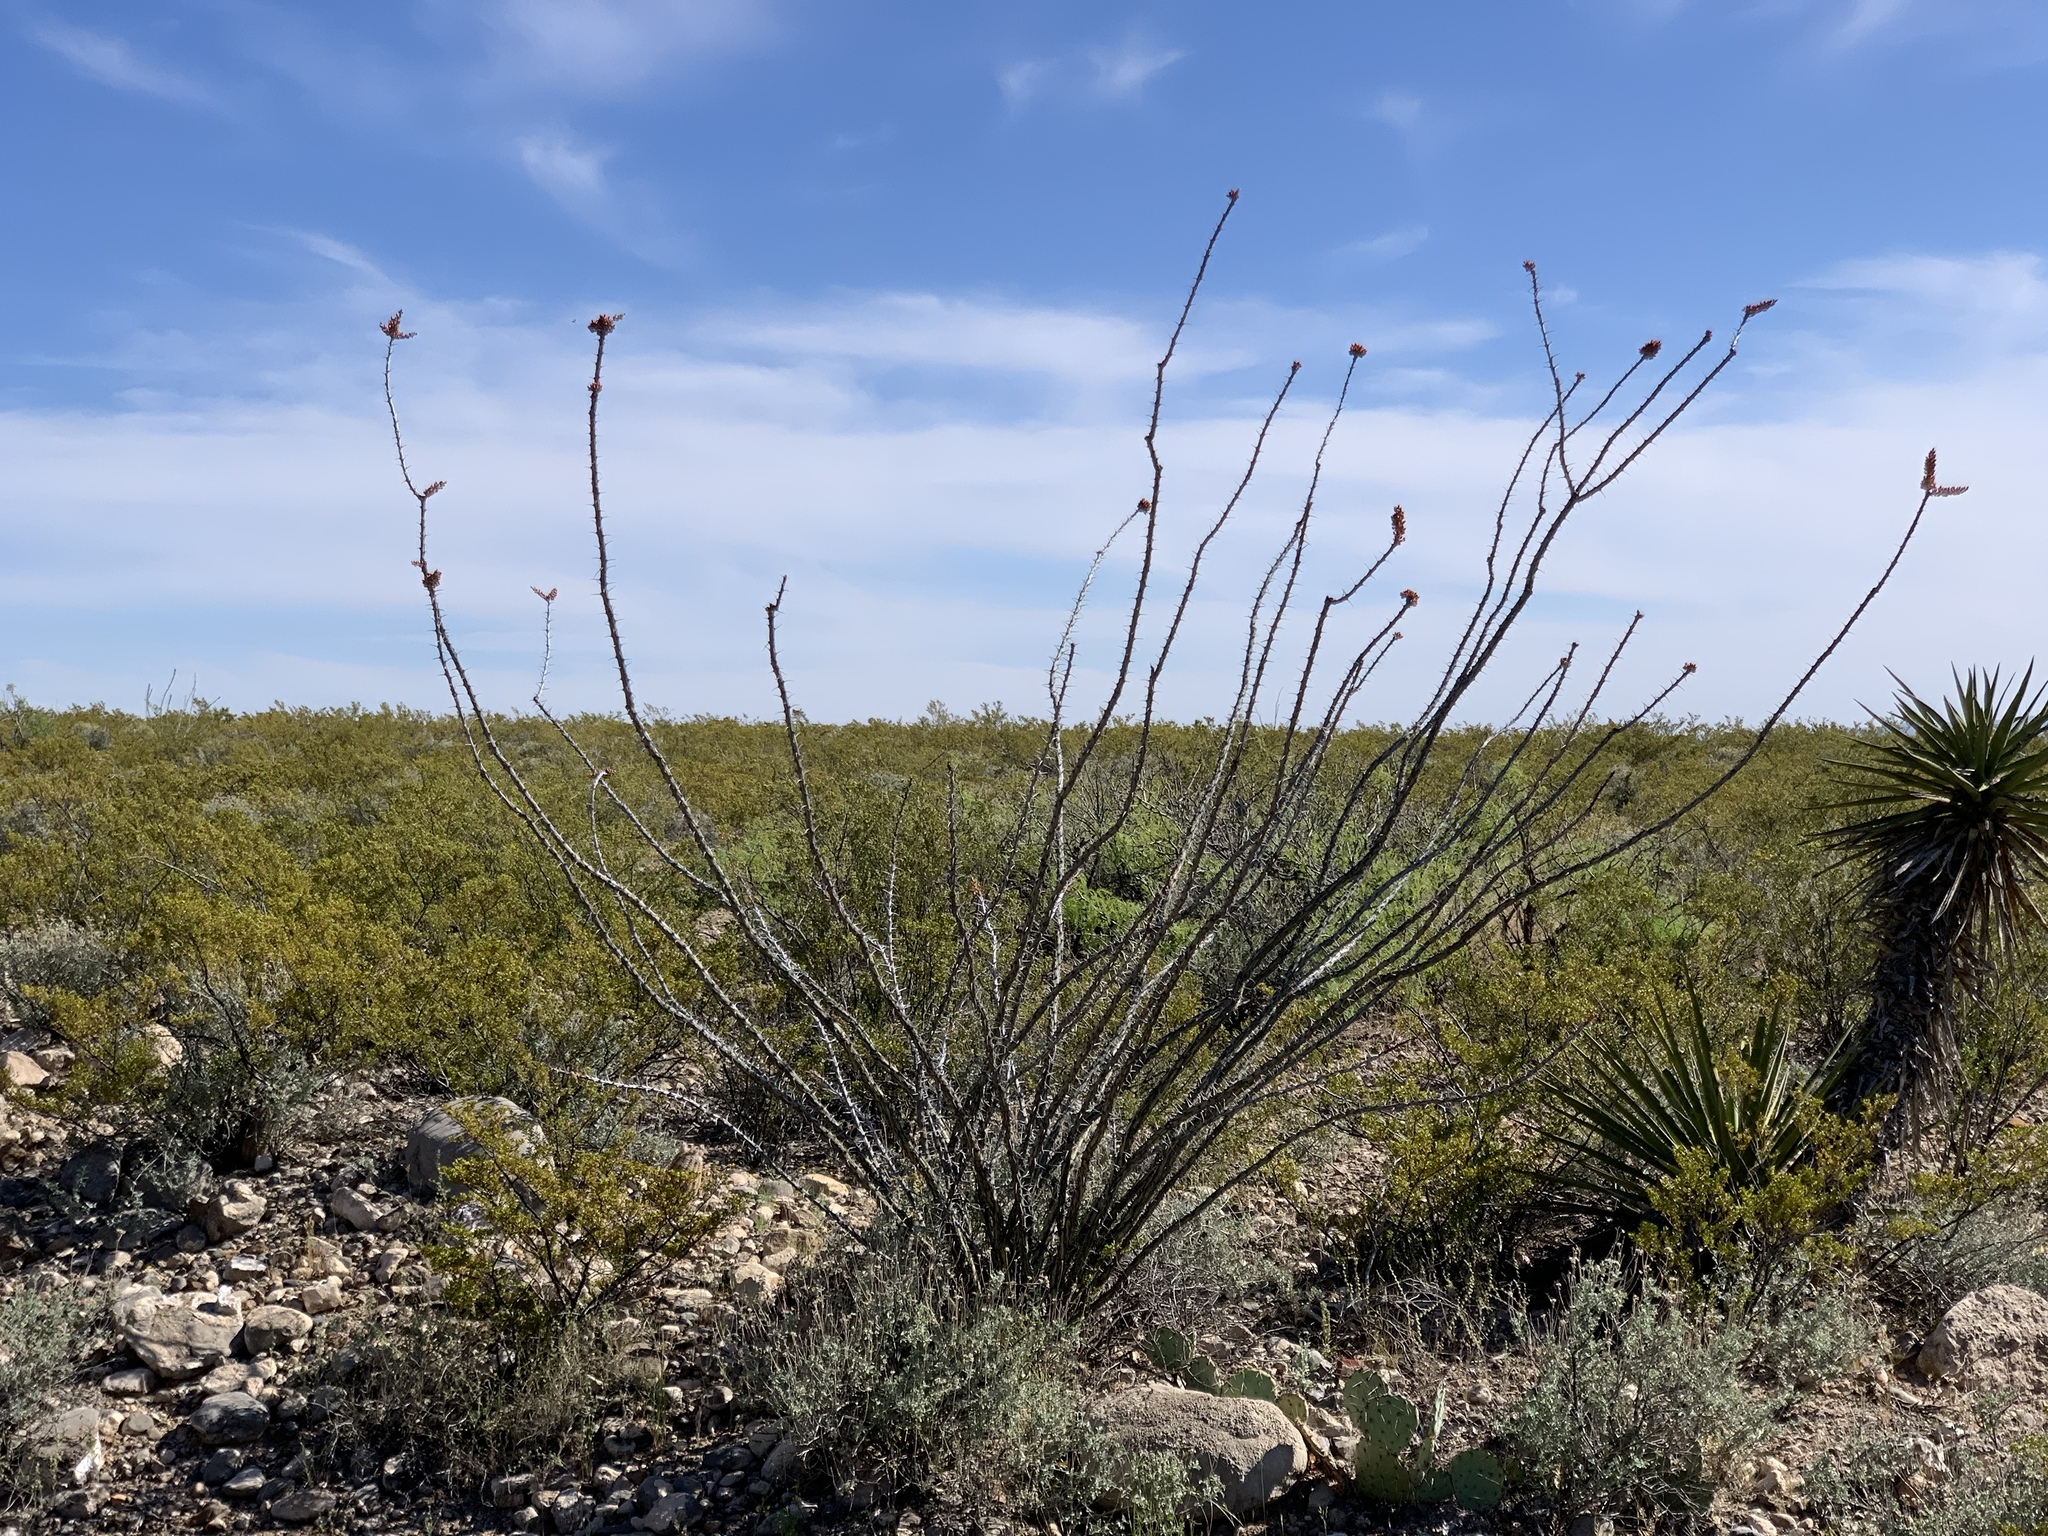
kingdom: Plantae
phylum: Tracheophyta
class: Magnoliopsida
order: Ericales
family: Fouquieriaceae
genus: Fouquieria
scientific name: Fouquieria splendens
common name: Vine-cactus
